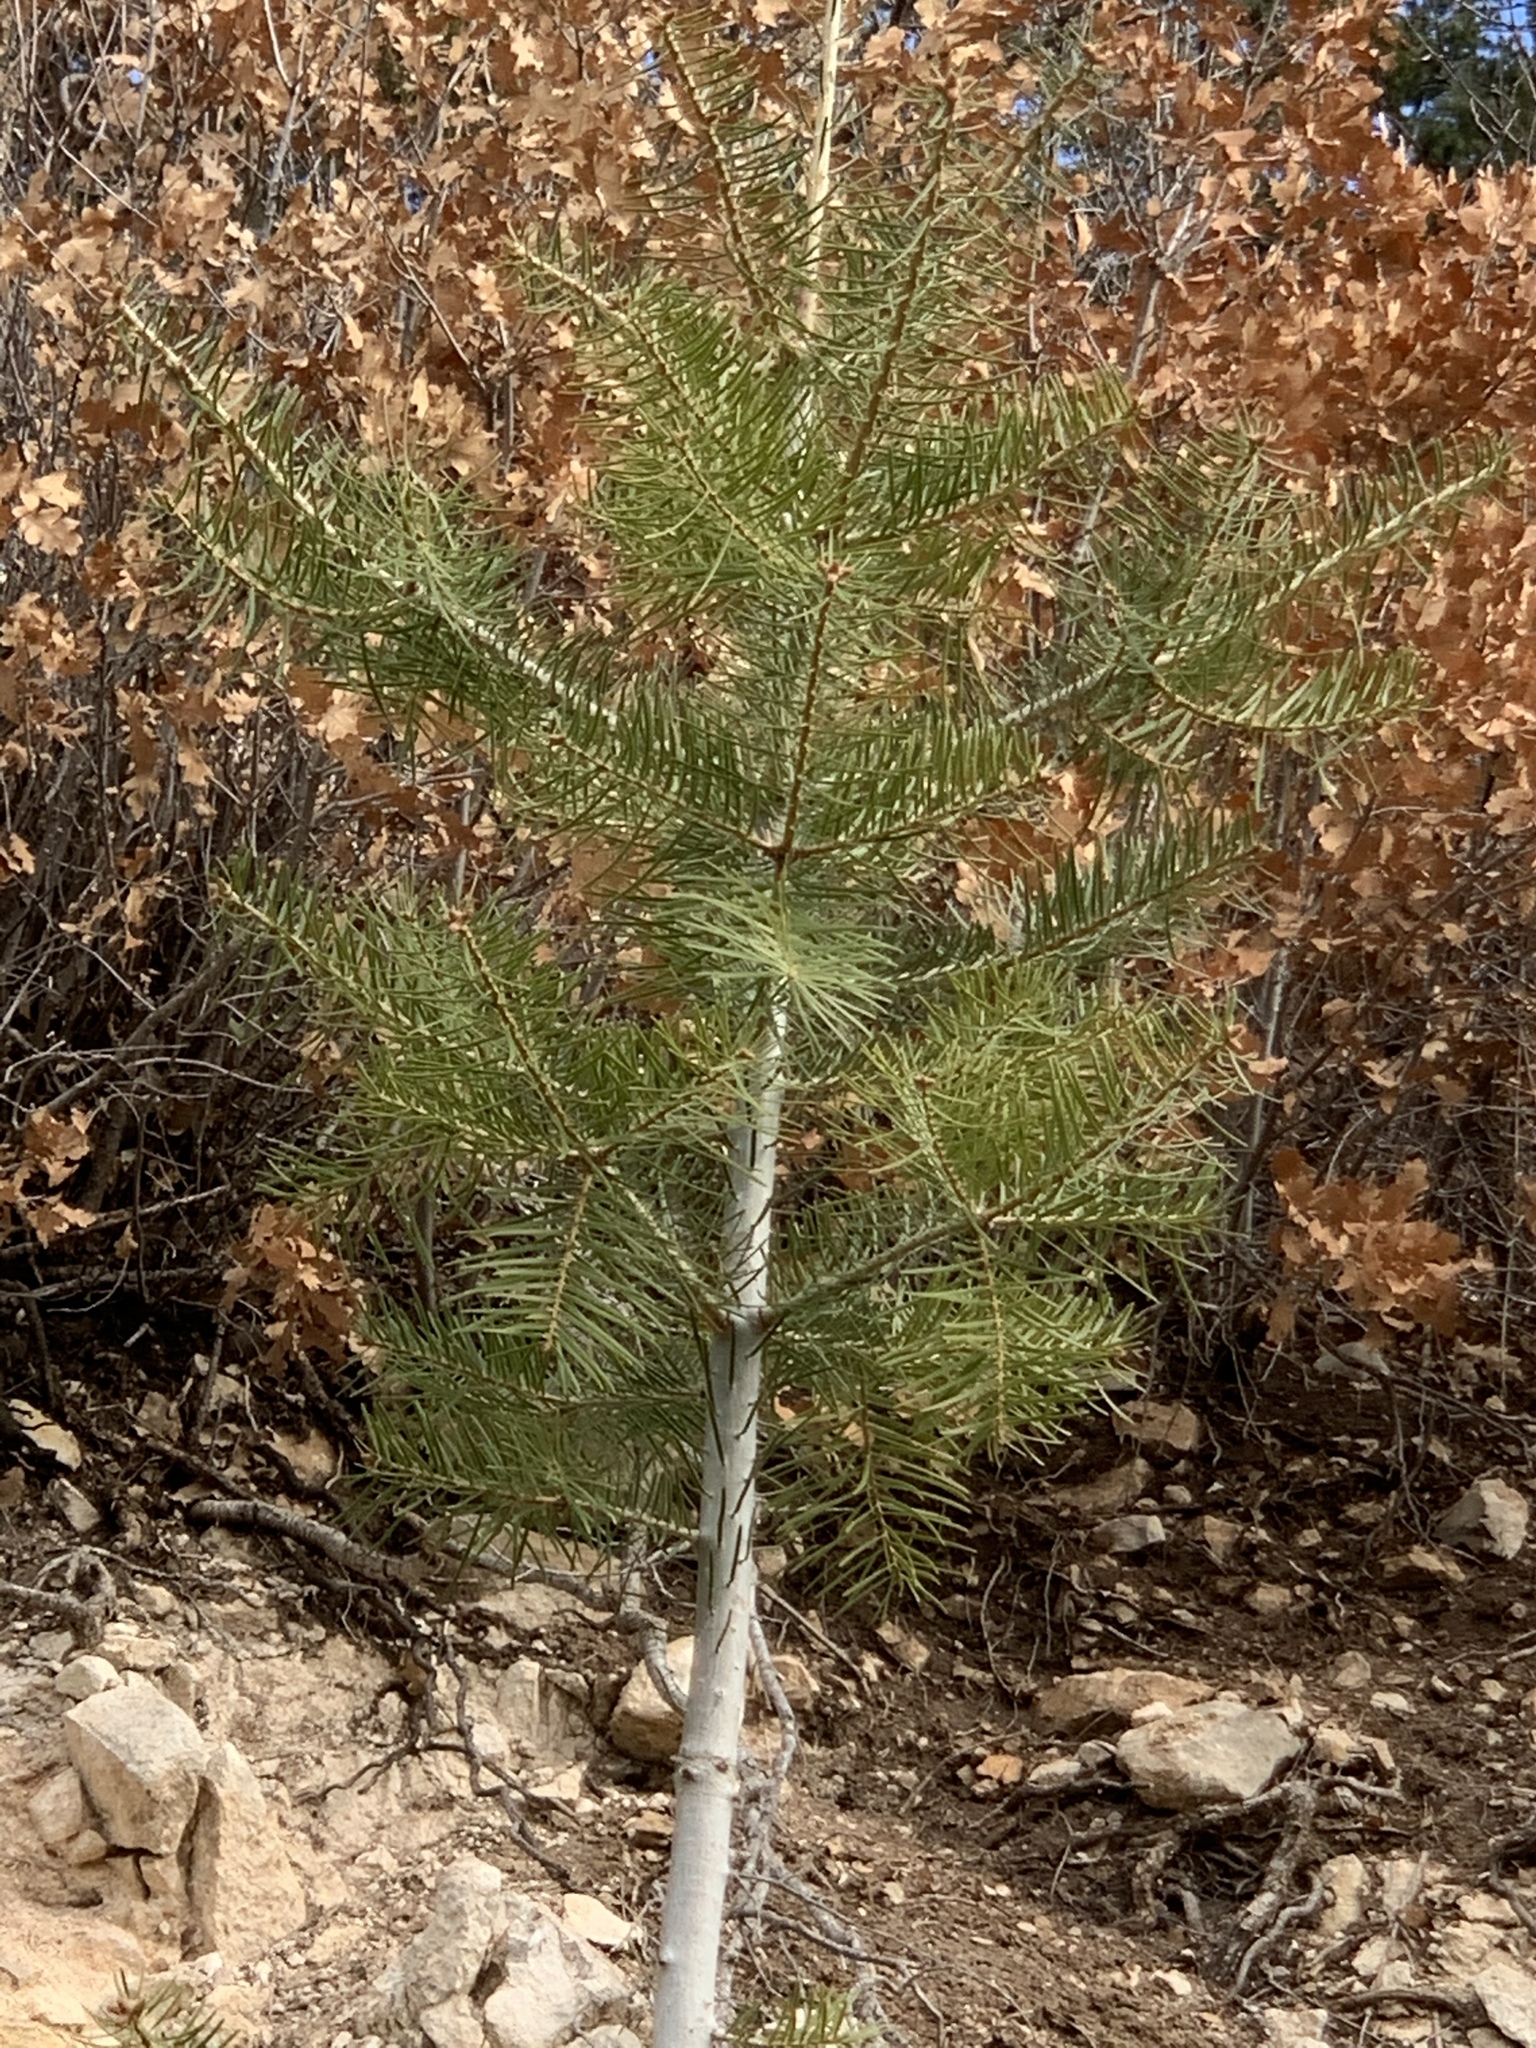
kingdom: Plantae
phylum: Tracheophyta
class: Pinopsida
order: Pinales
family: Pinaceae
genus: Abies
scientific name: Abies concolor
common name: Colorado fir
